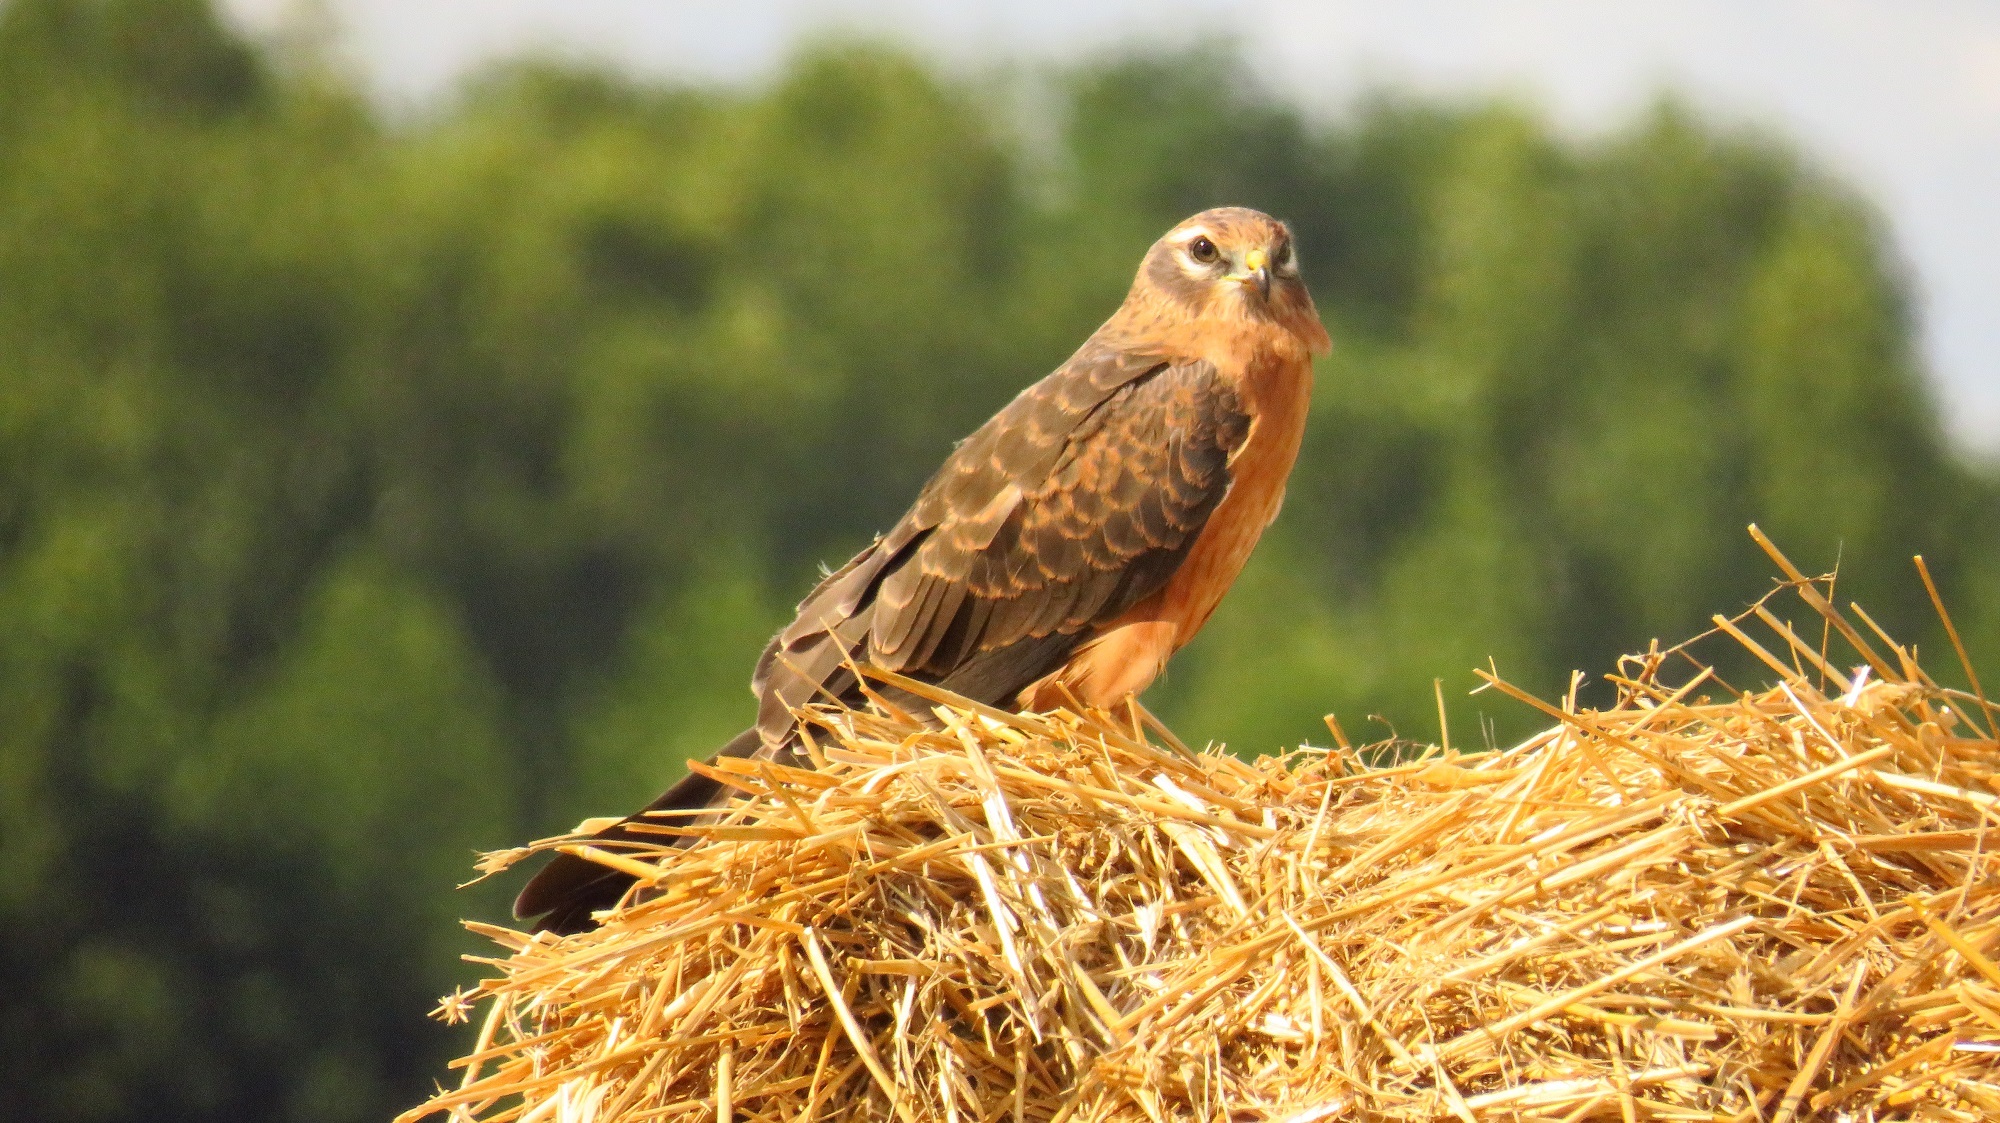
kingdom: Animalia
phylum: Chordata
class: Aves
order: Accipitriformes
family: Accipitridae
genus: Circus
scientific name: Circus pygargus
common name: Montagu's harrier
